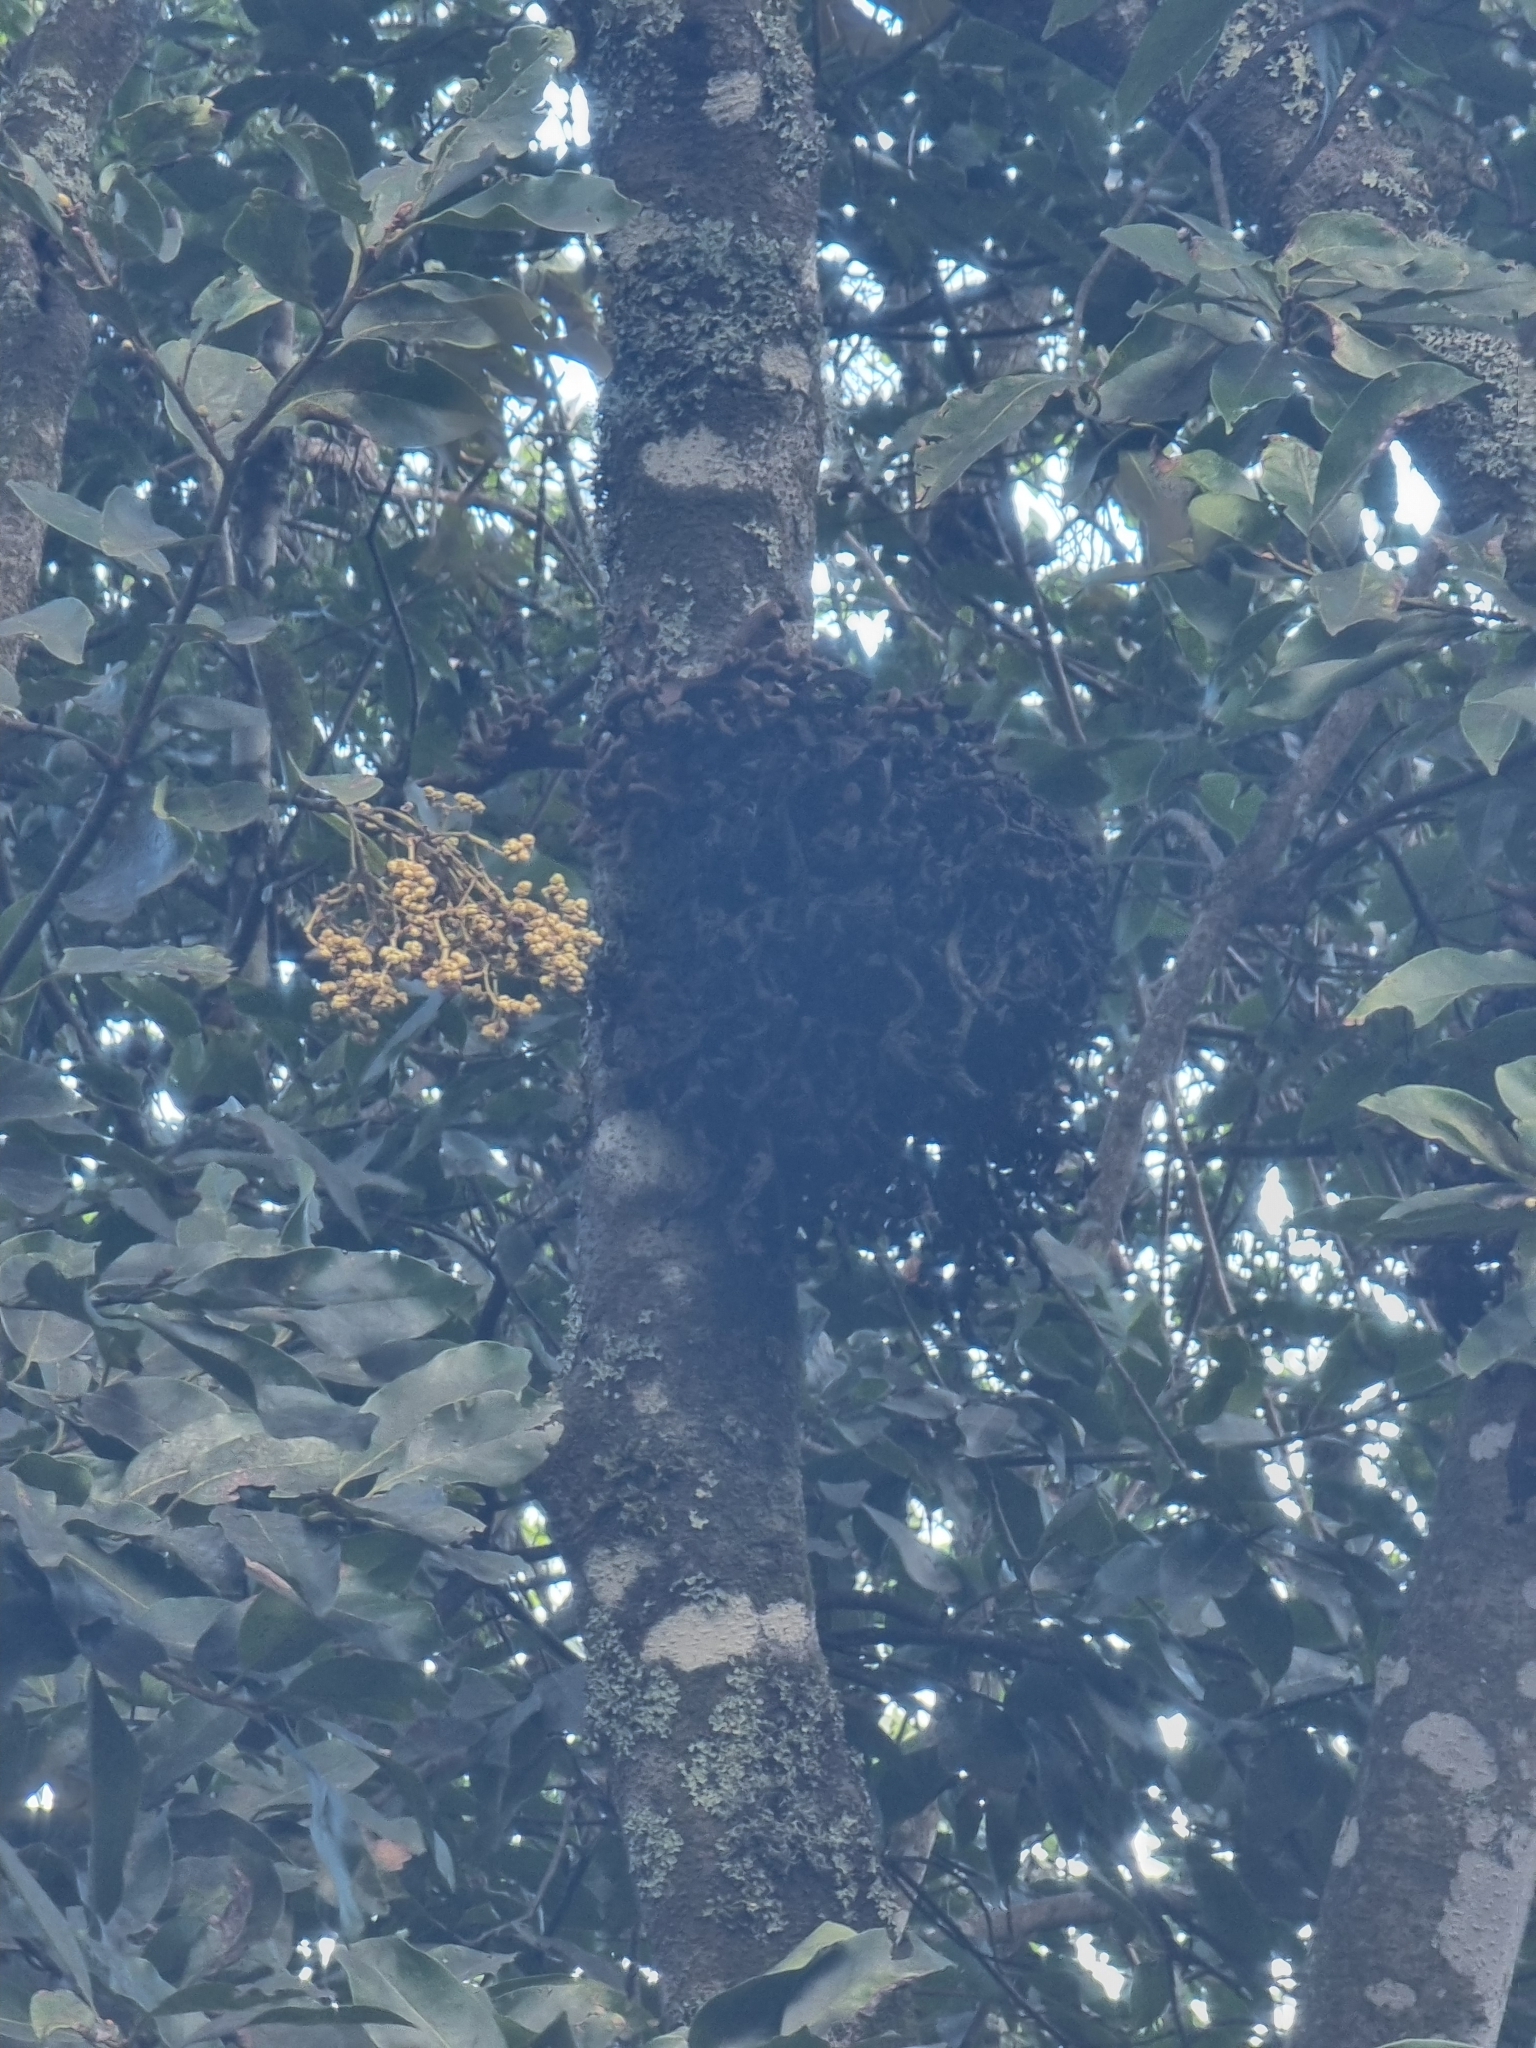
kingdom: Fungi
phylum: Basidiomycota
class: Exobasidiomycetes
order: Exobasidiales
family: Laurobasidiaceae
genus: Laurobasidium
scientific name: Laurobasidium lauri
